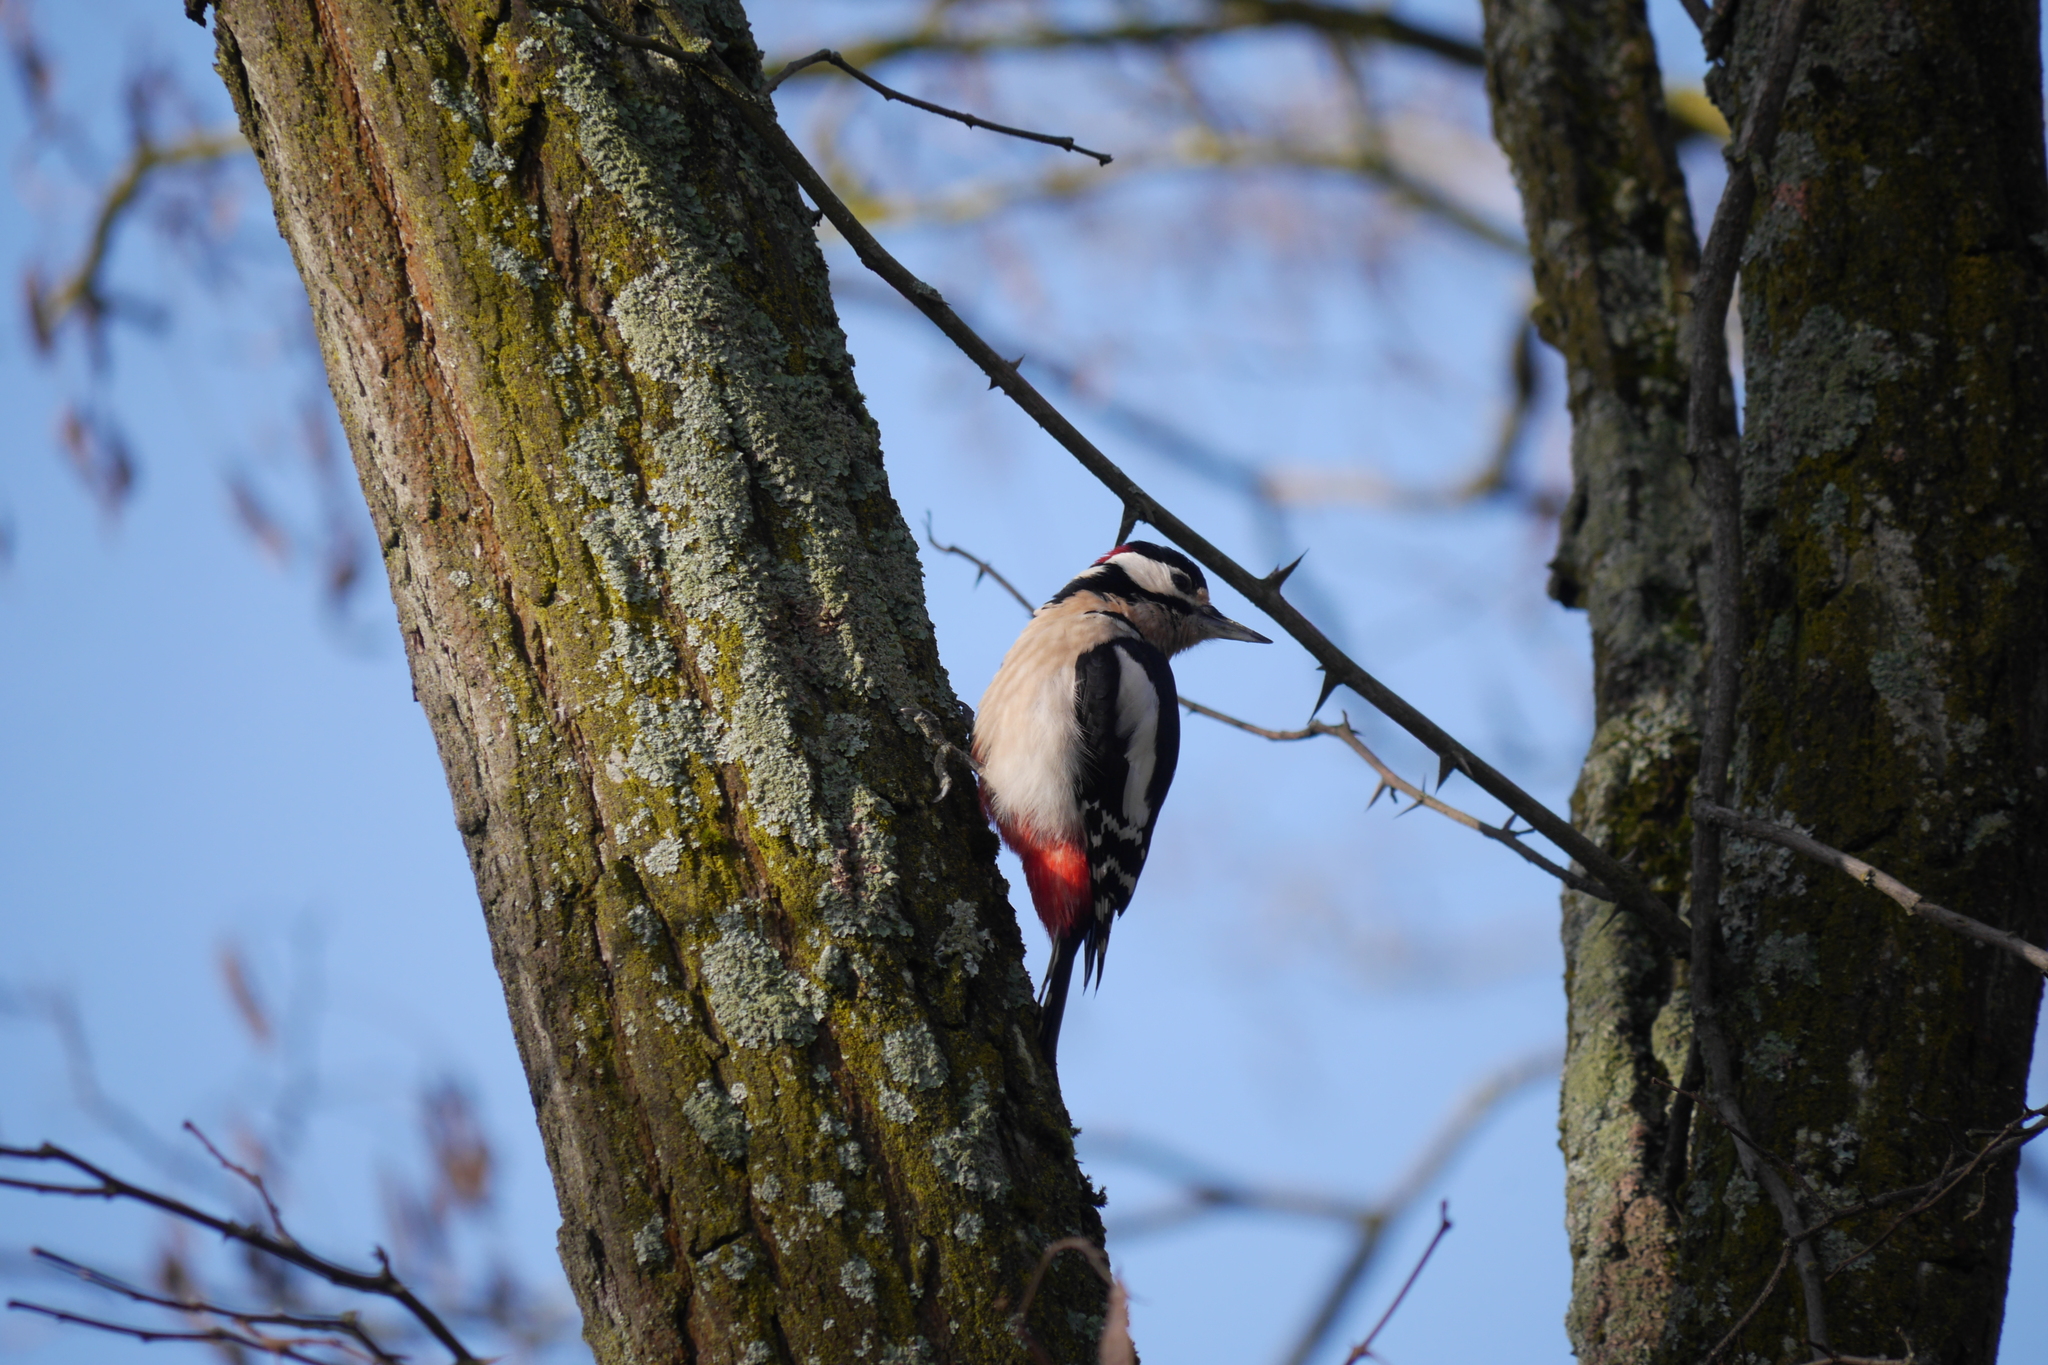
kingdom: Animalia
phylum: Chordata
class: Aves
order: Piciformes
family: Picidae
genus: Dendrocopos
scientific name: Dendrocopos major
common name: Great spotted woodpecker
